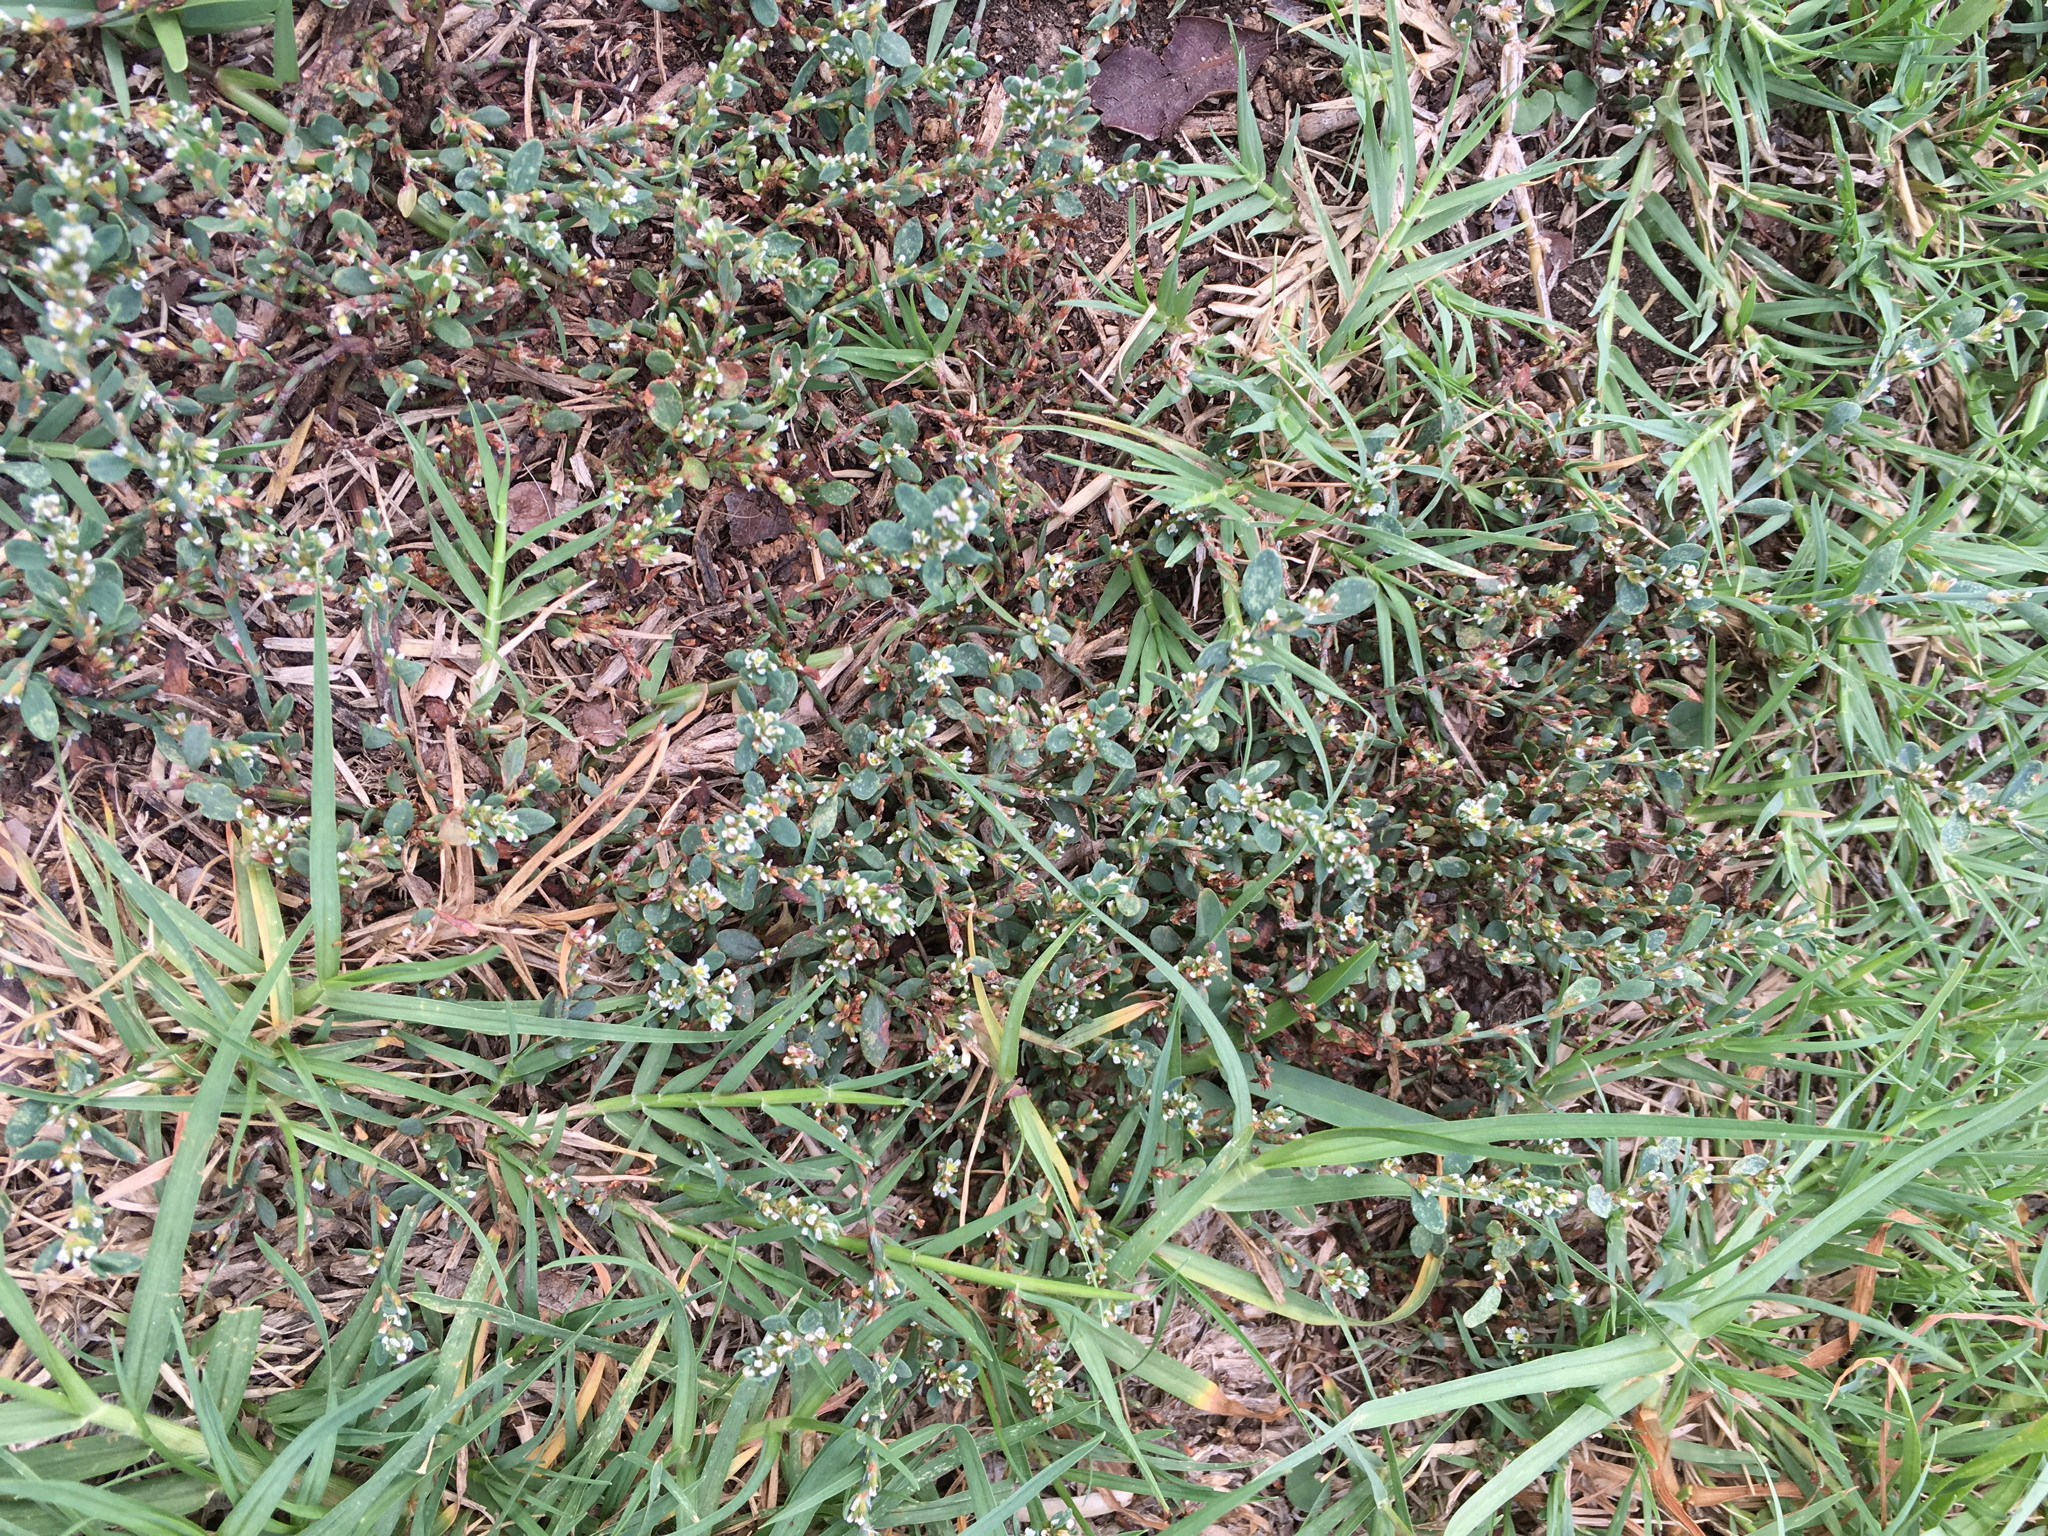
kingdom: Plantae
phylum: Tracheophyta
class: Magnoliopsida
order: Caryophyllales
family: Polygonaceae
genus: Polygonum
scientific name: Polygonum aviculare
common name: Prostrate knotweed
